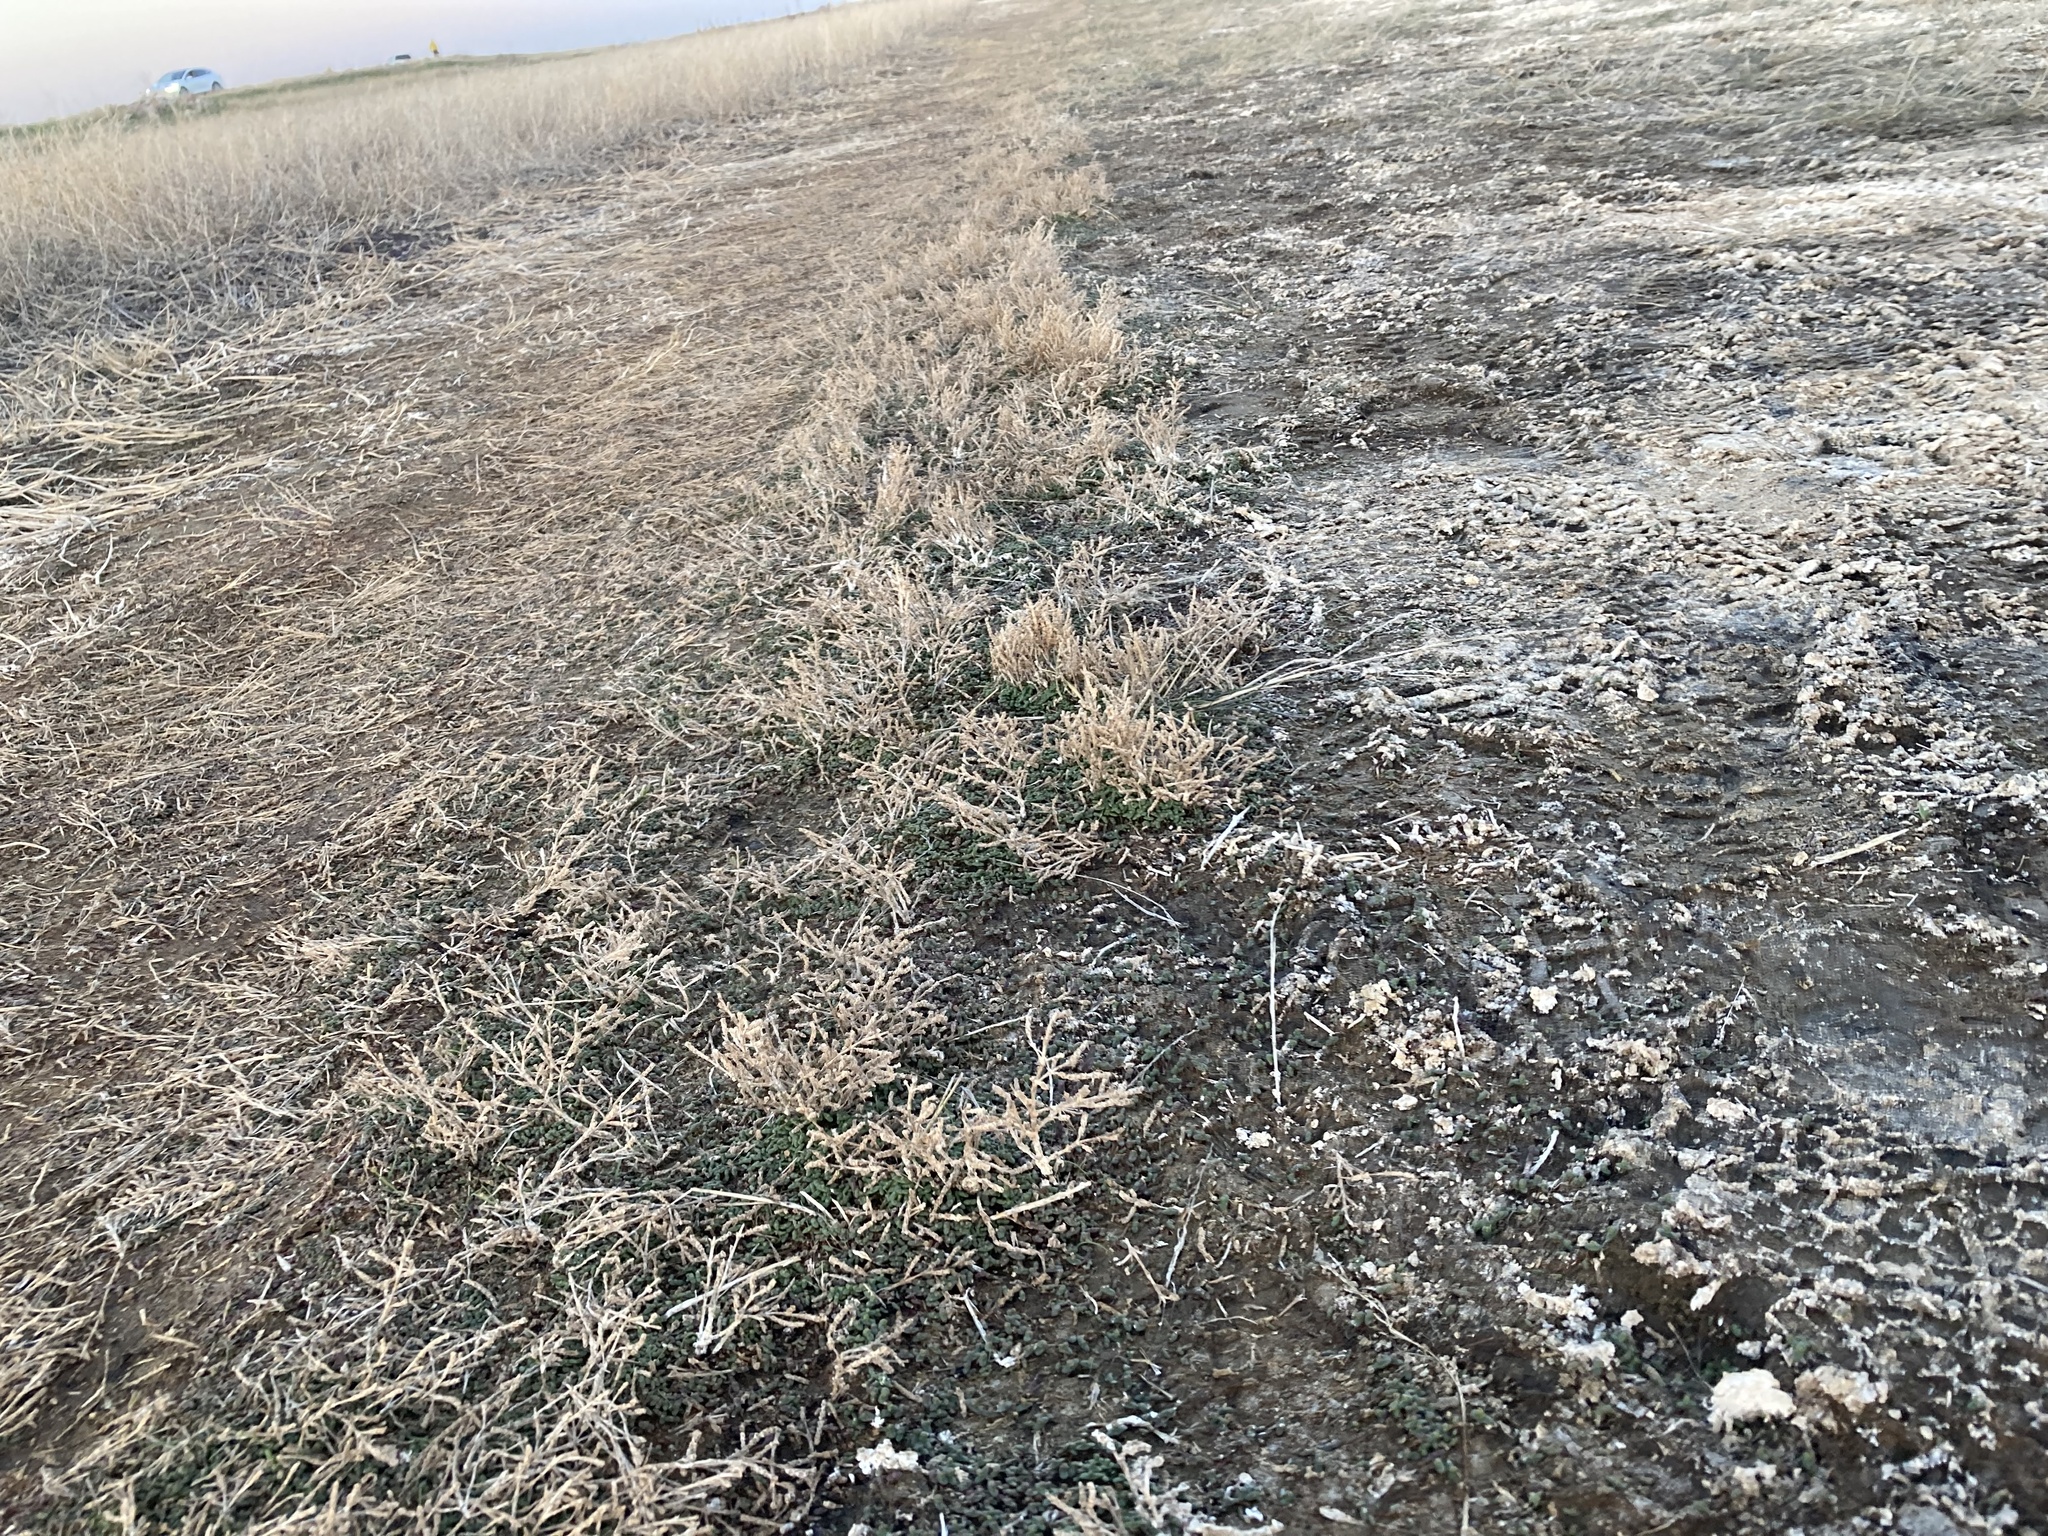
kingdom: Plantae
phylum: Tracheophyta
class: Magnoliopsida
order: Caryophyllales
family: Amaranthaceae
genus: Salicornia
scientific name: Salicornia rubra
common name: Red glasswort
